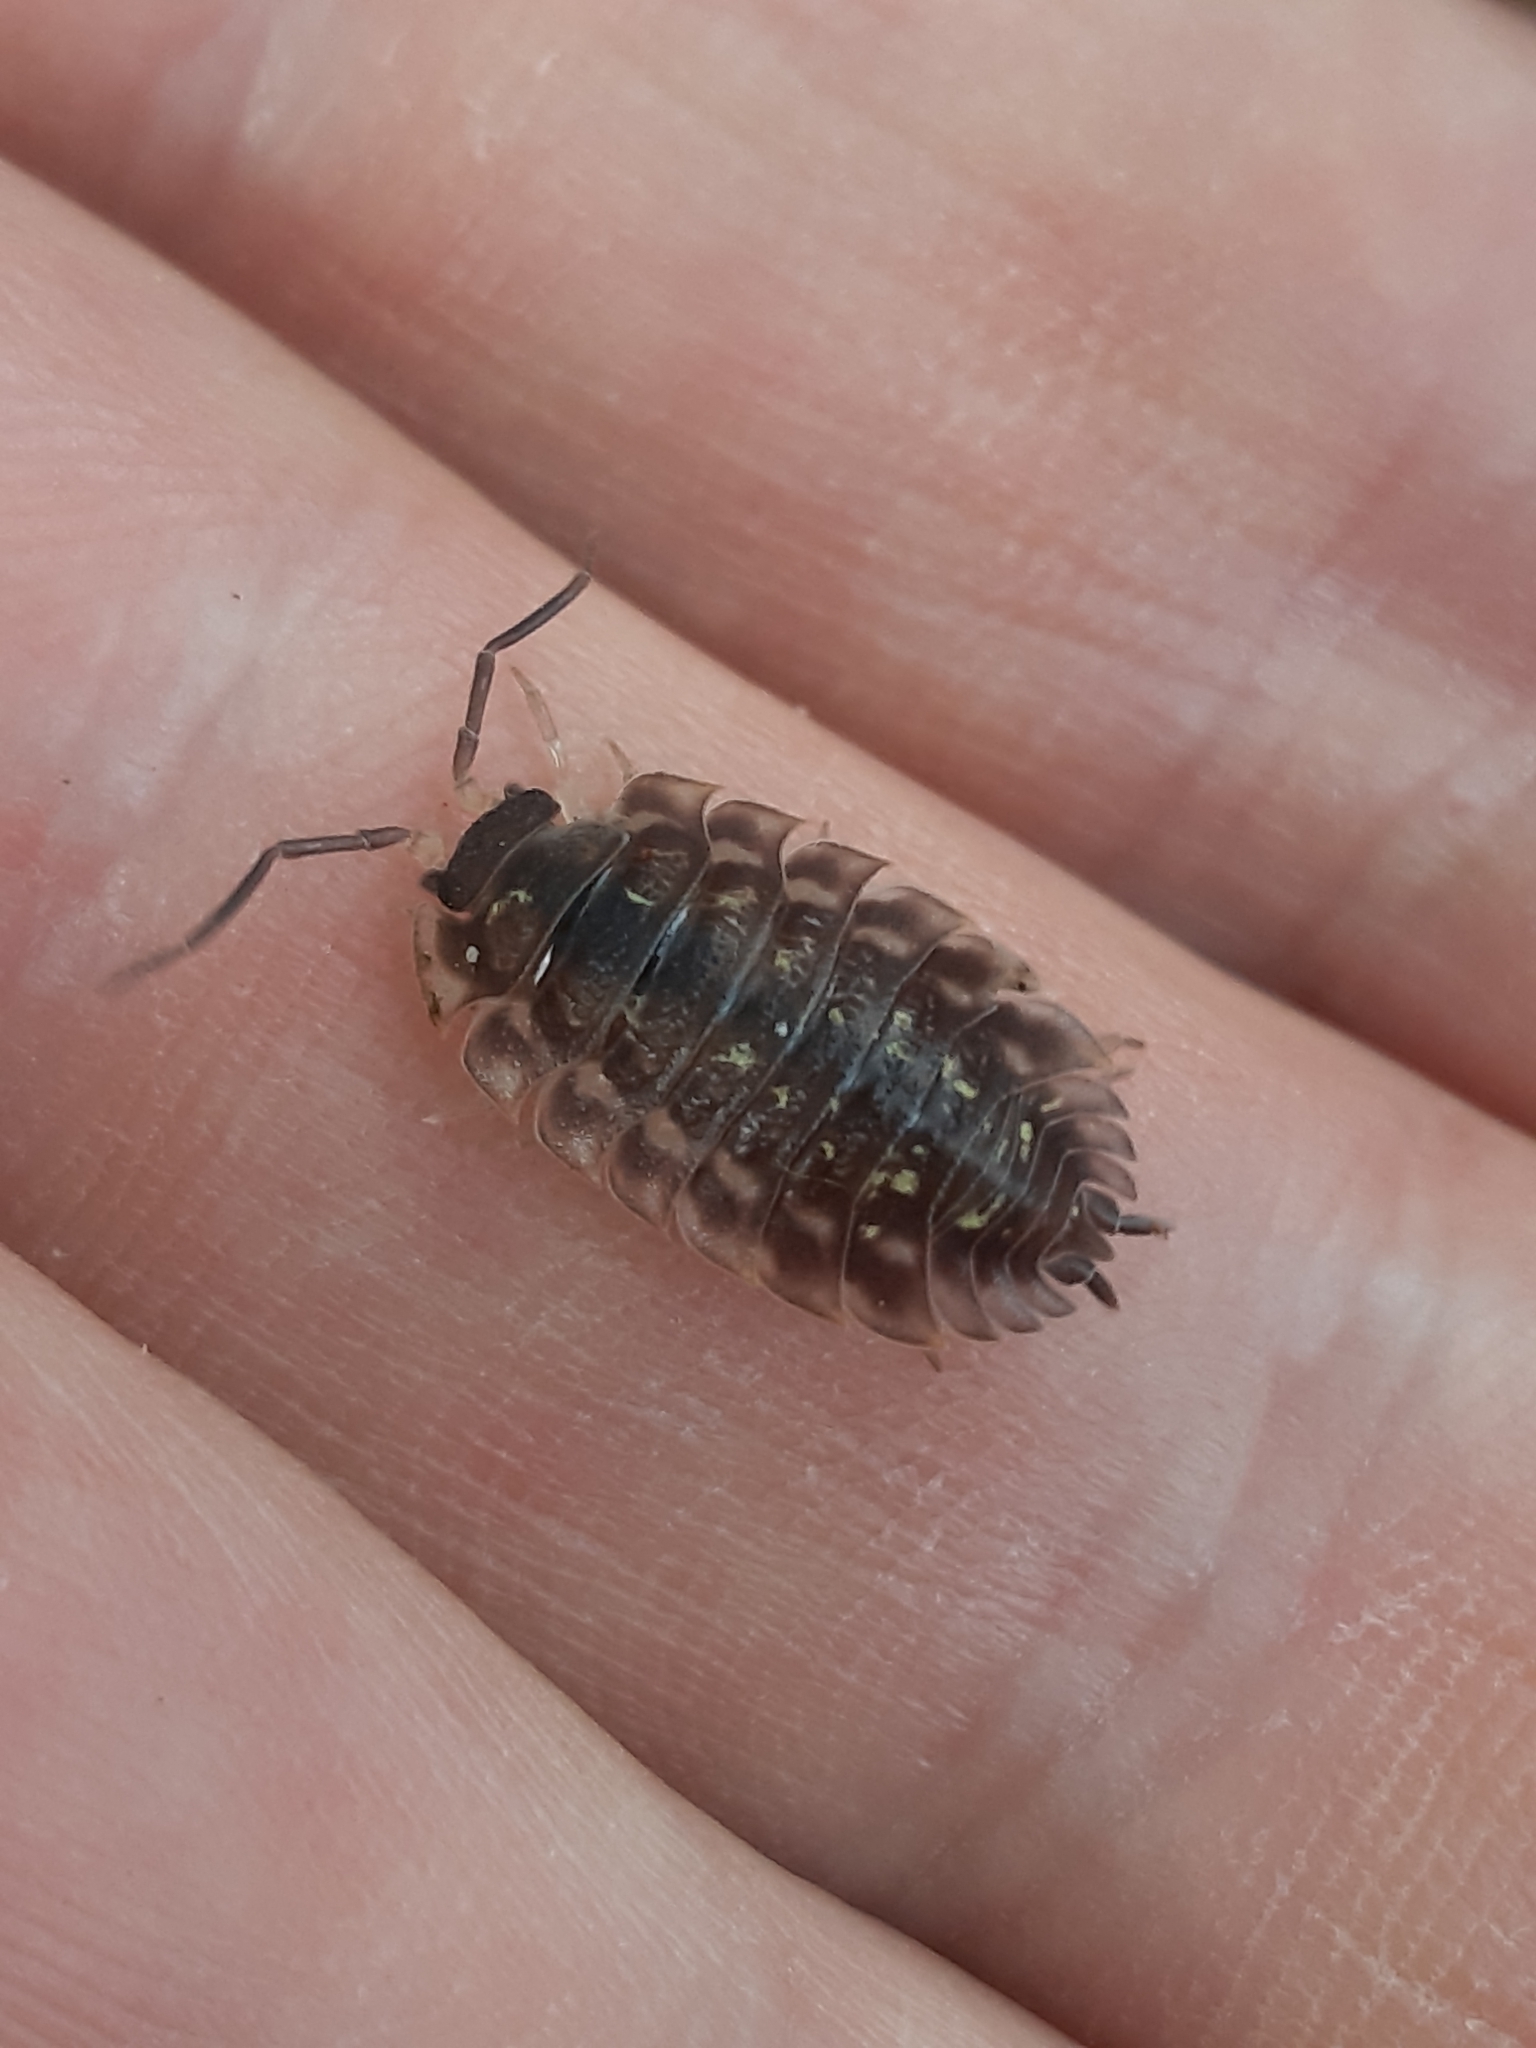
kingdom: Animalia
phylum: Arthropoda
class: Malacostraca
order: Isopoda
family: Oniscidae
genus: Oniscus
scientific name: Oniscus asellus
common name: Common shiny woodlouse
